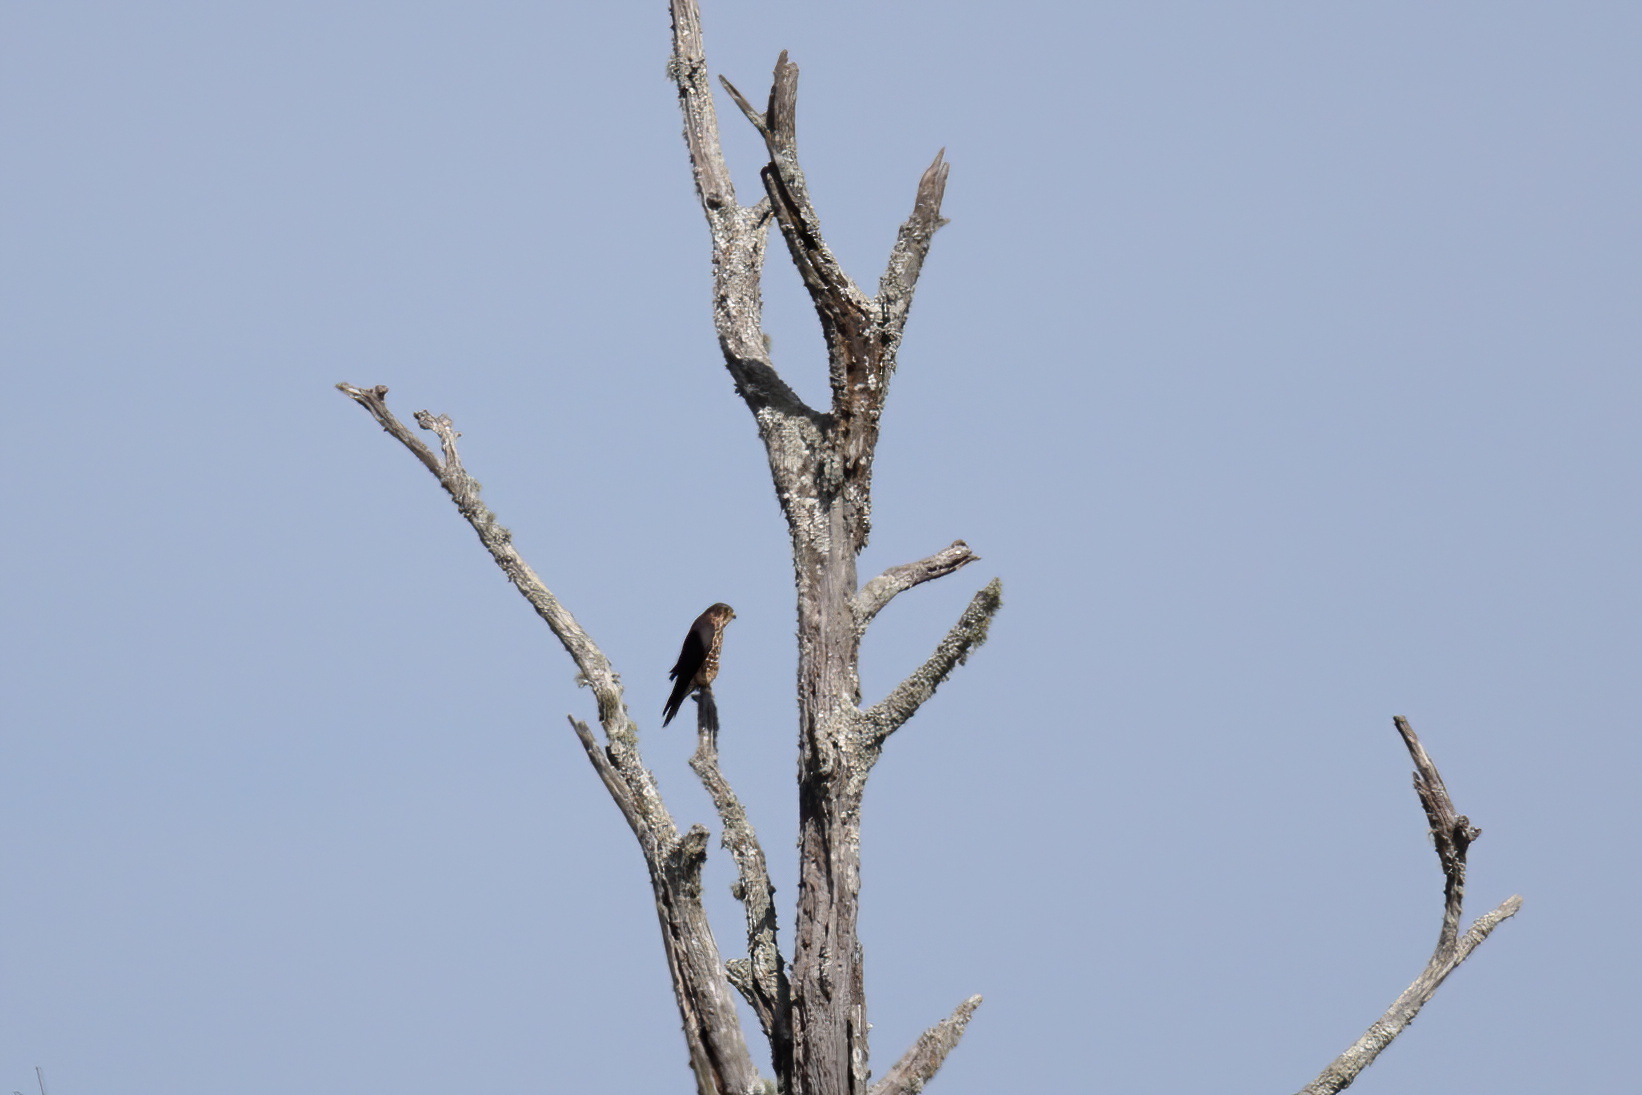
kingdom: Animalia
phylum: Chordata
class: Aves
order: Falconiformes
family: Falconidae
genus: Falco
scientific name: Falco columbarius
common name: Merlin
